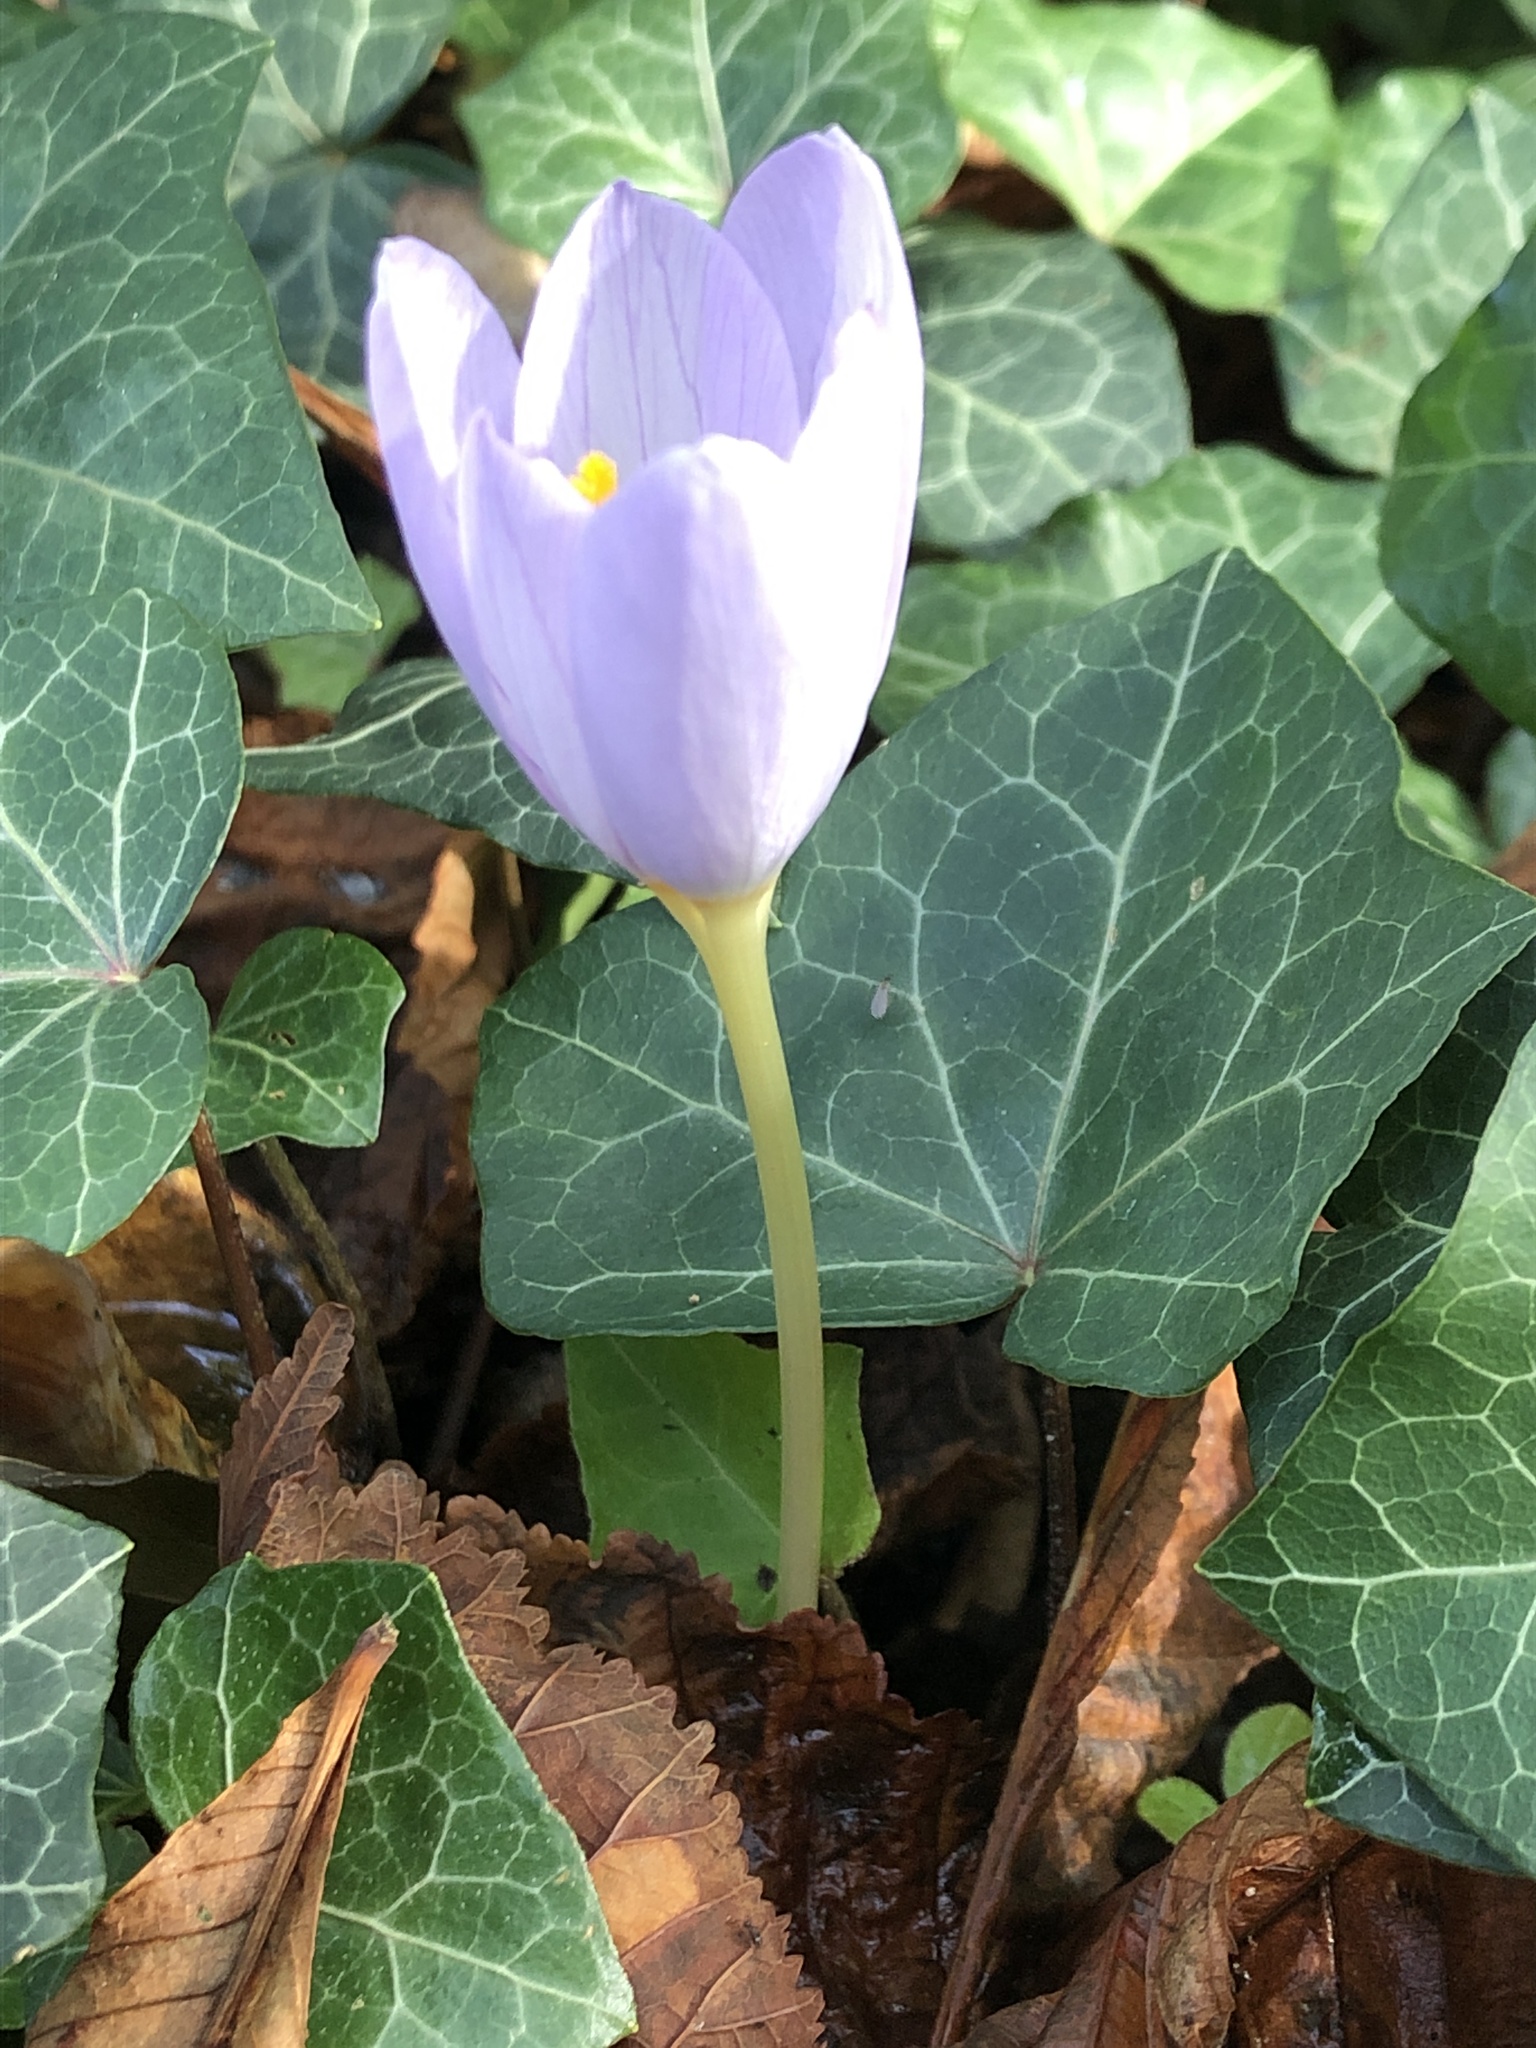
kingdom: Plantae
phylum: Tracheophyta
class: Liliopsida
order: Liliales
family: Colchicaceae
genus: Colchicum
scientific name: Colchicum autumnale
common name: Autumn crocus
